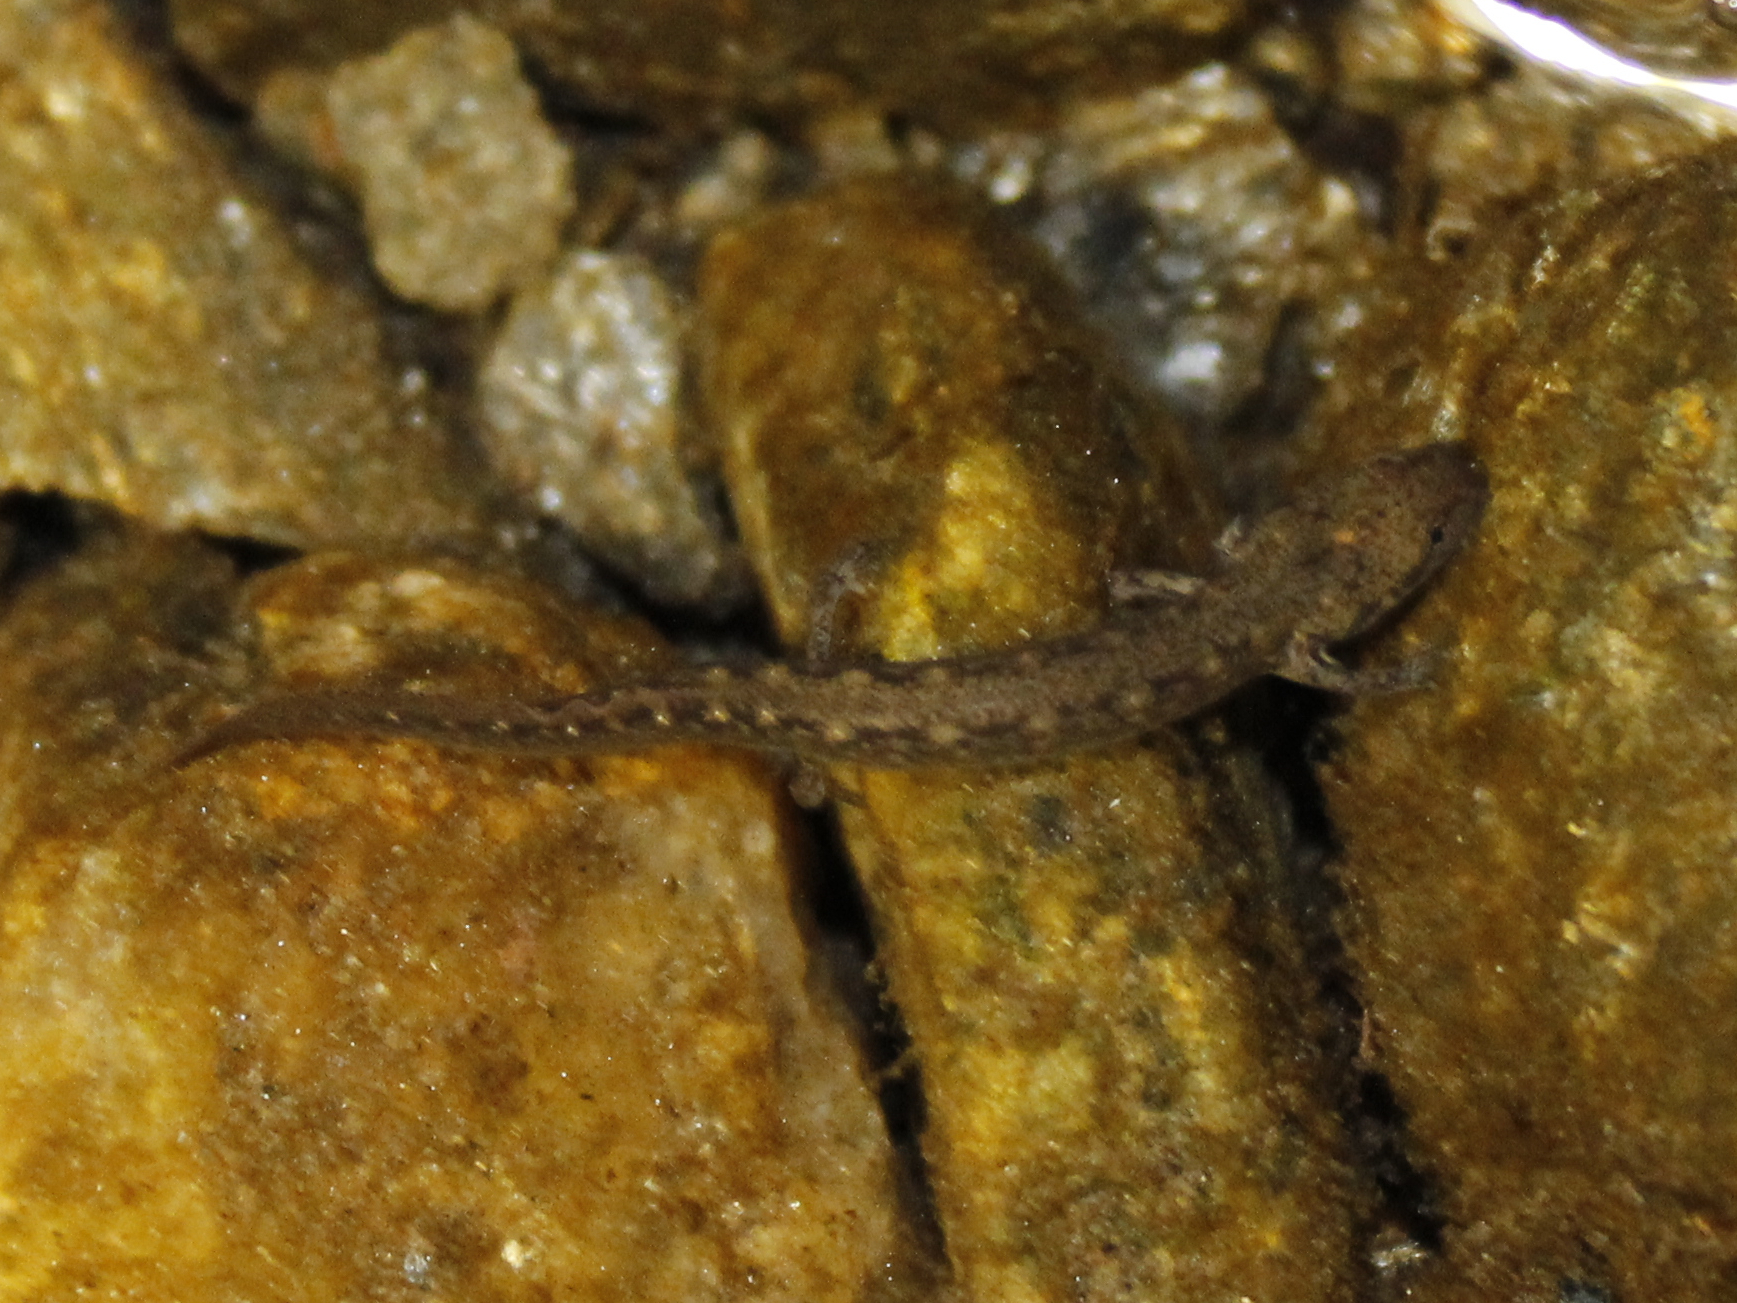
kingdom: Animalia
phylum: Chordata
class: Amphibia
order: Caudata
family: Plethodontidae
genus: Eurycea
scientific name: Eurycea bislineata
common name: Northern two-lined salamander
